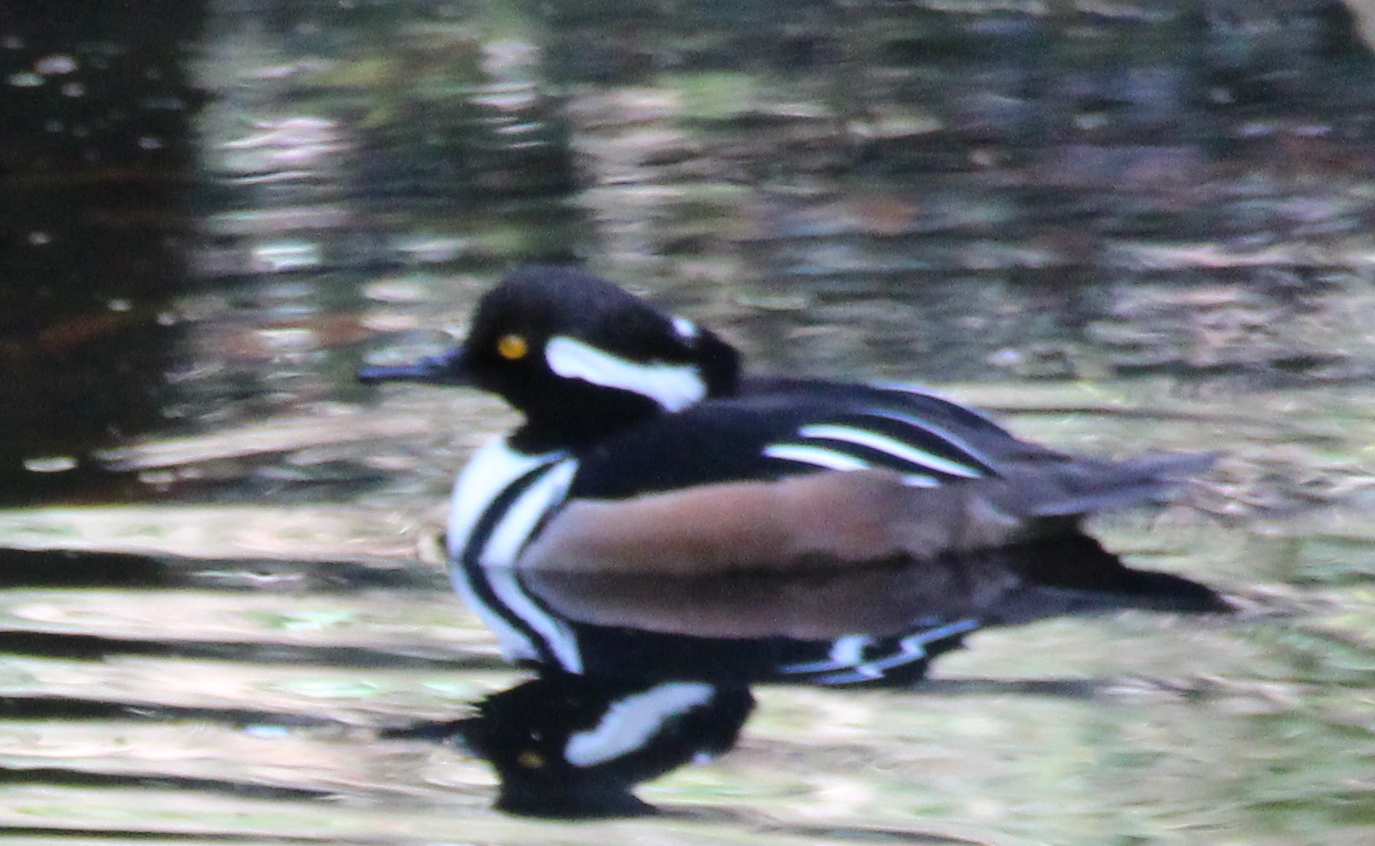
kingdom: Animalia
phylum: Chordata
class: Aves
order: Anseriformes
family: Anatidae
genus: Lophodytes
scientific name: Lophodytes cucullatus
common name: Hooded merganser
